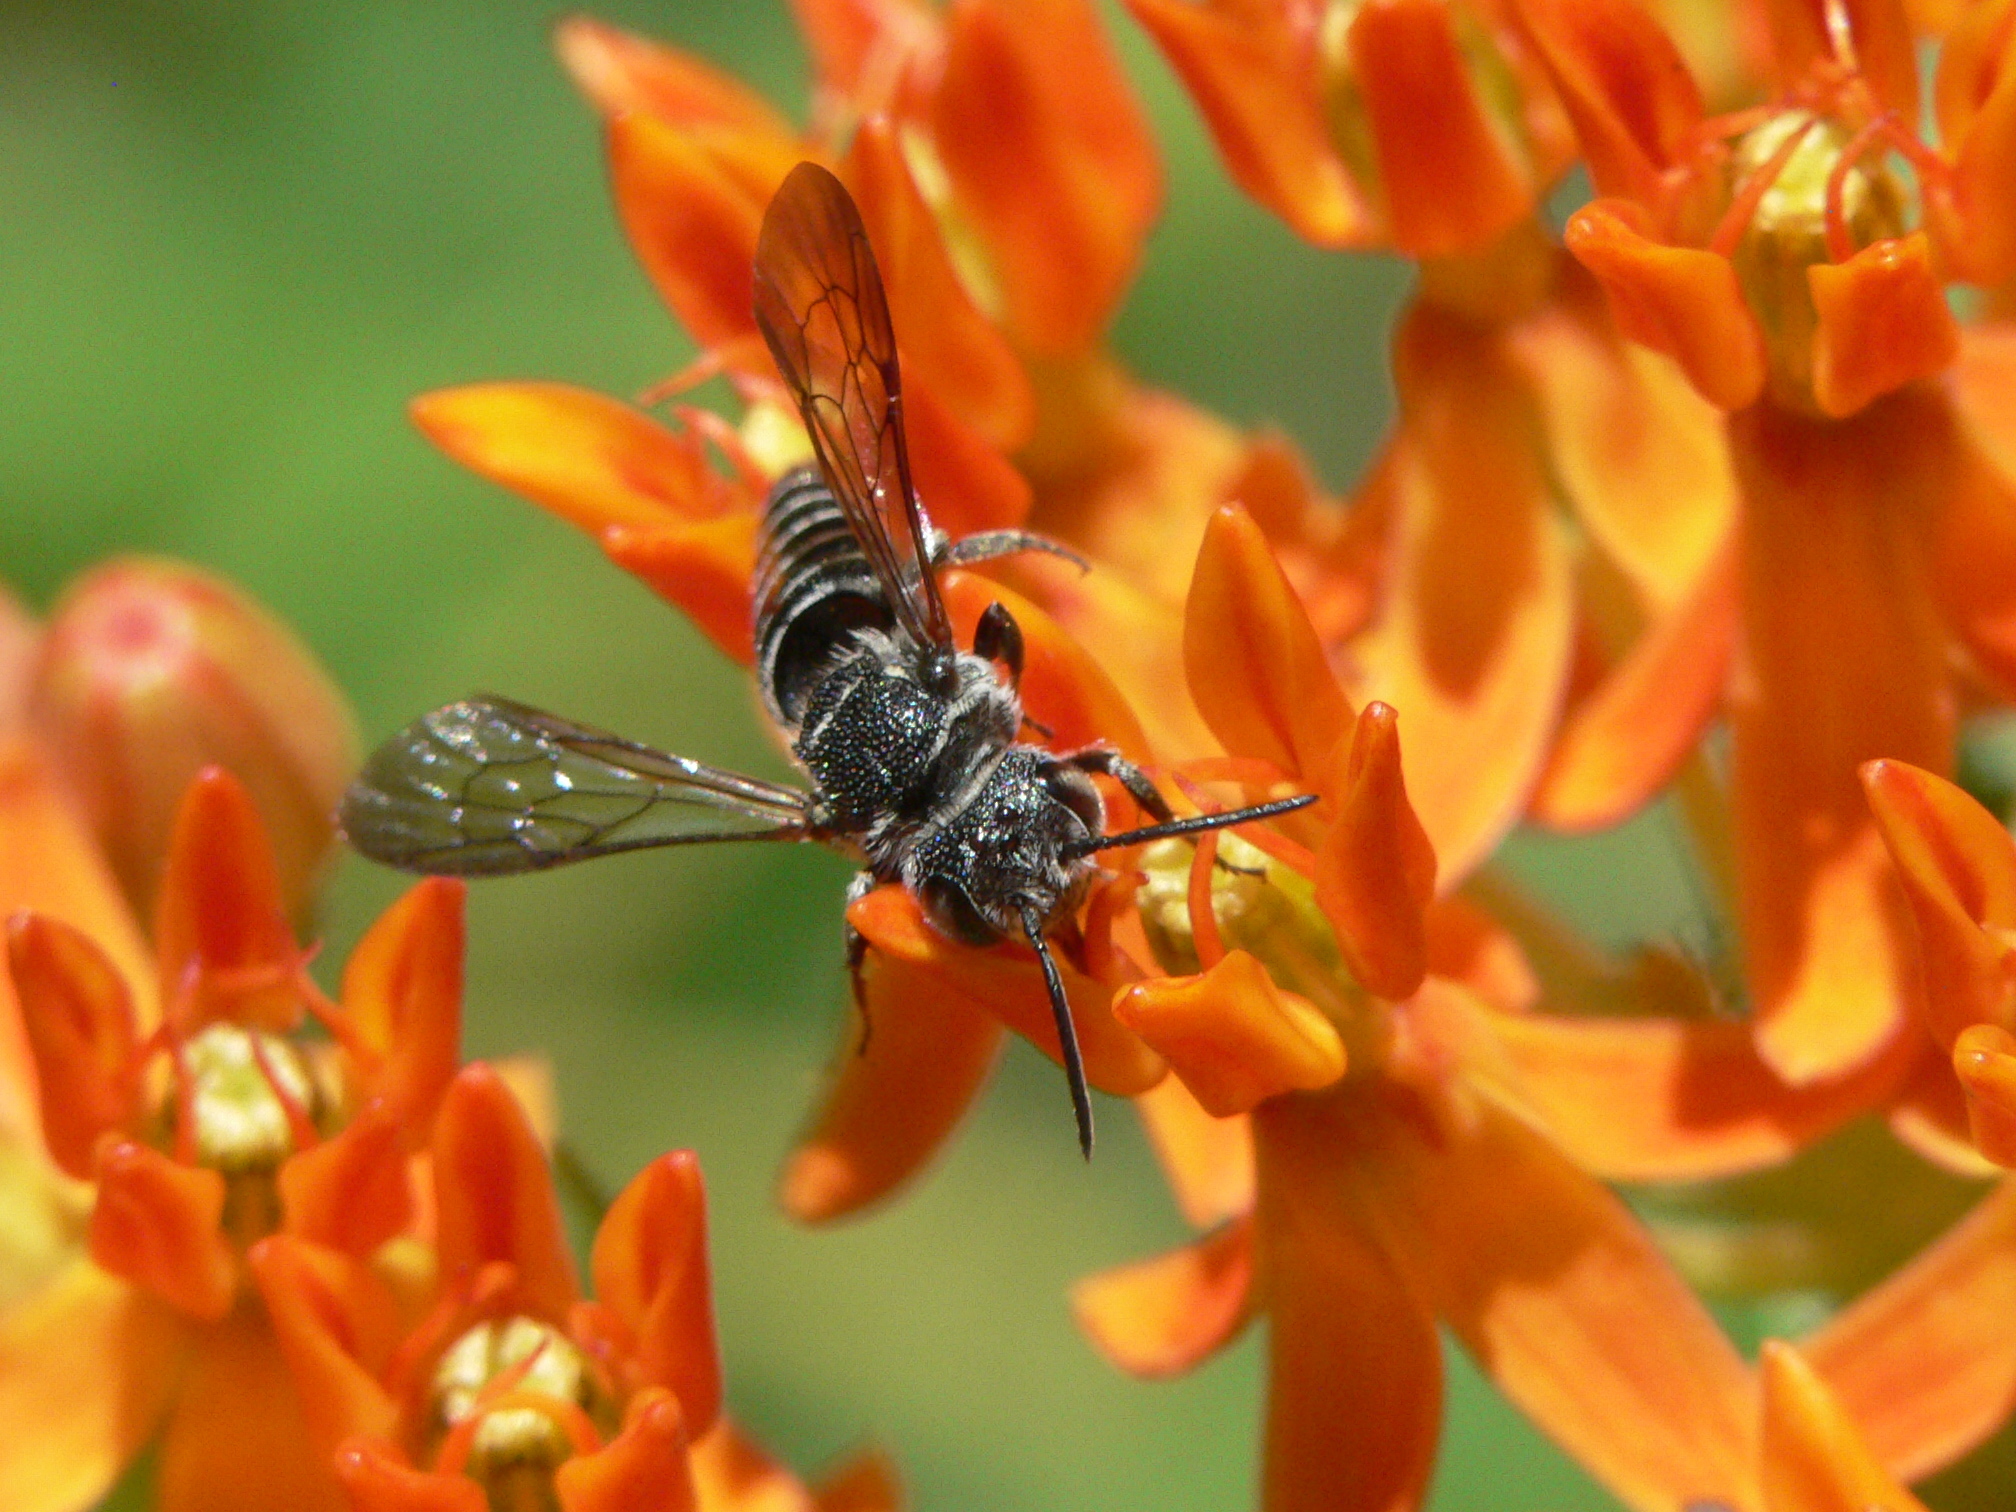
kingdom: Animalia
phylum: Arthropoda
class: Insecta
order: Hymenoptera
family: Megachilidae
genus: Coelioxys
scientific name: Coelioxys modestus
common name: Modest sharptail
